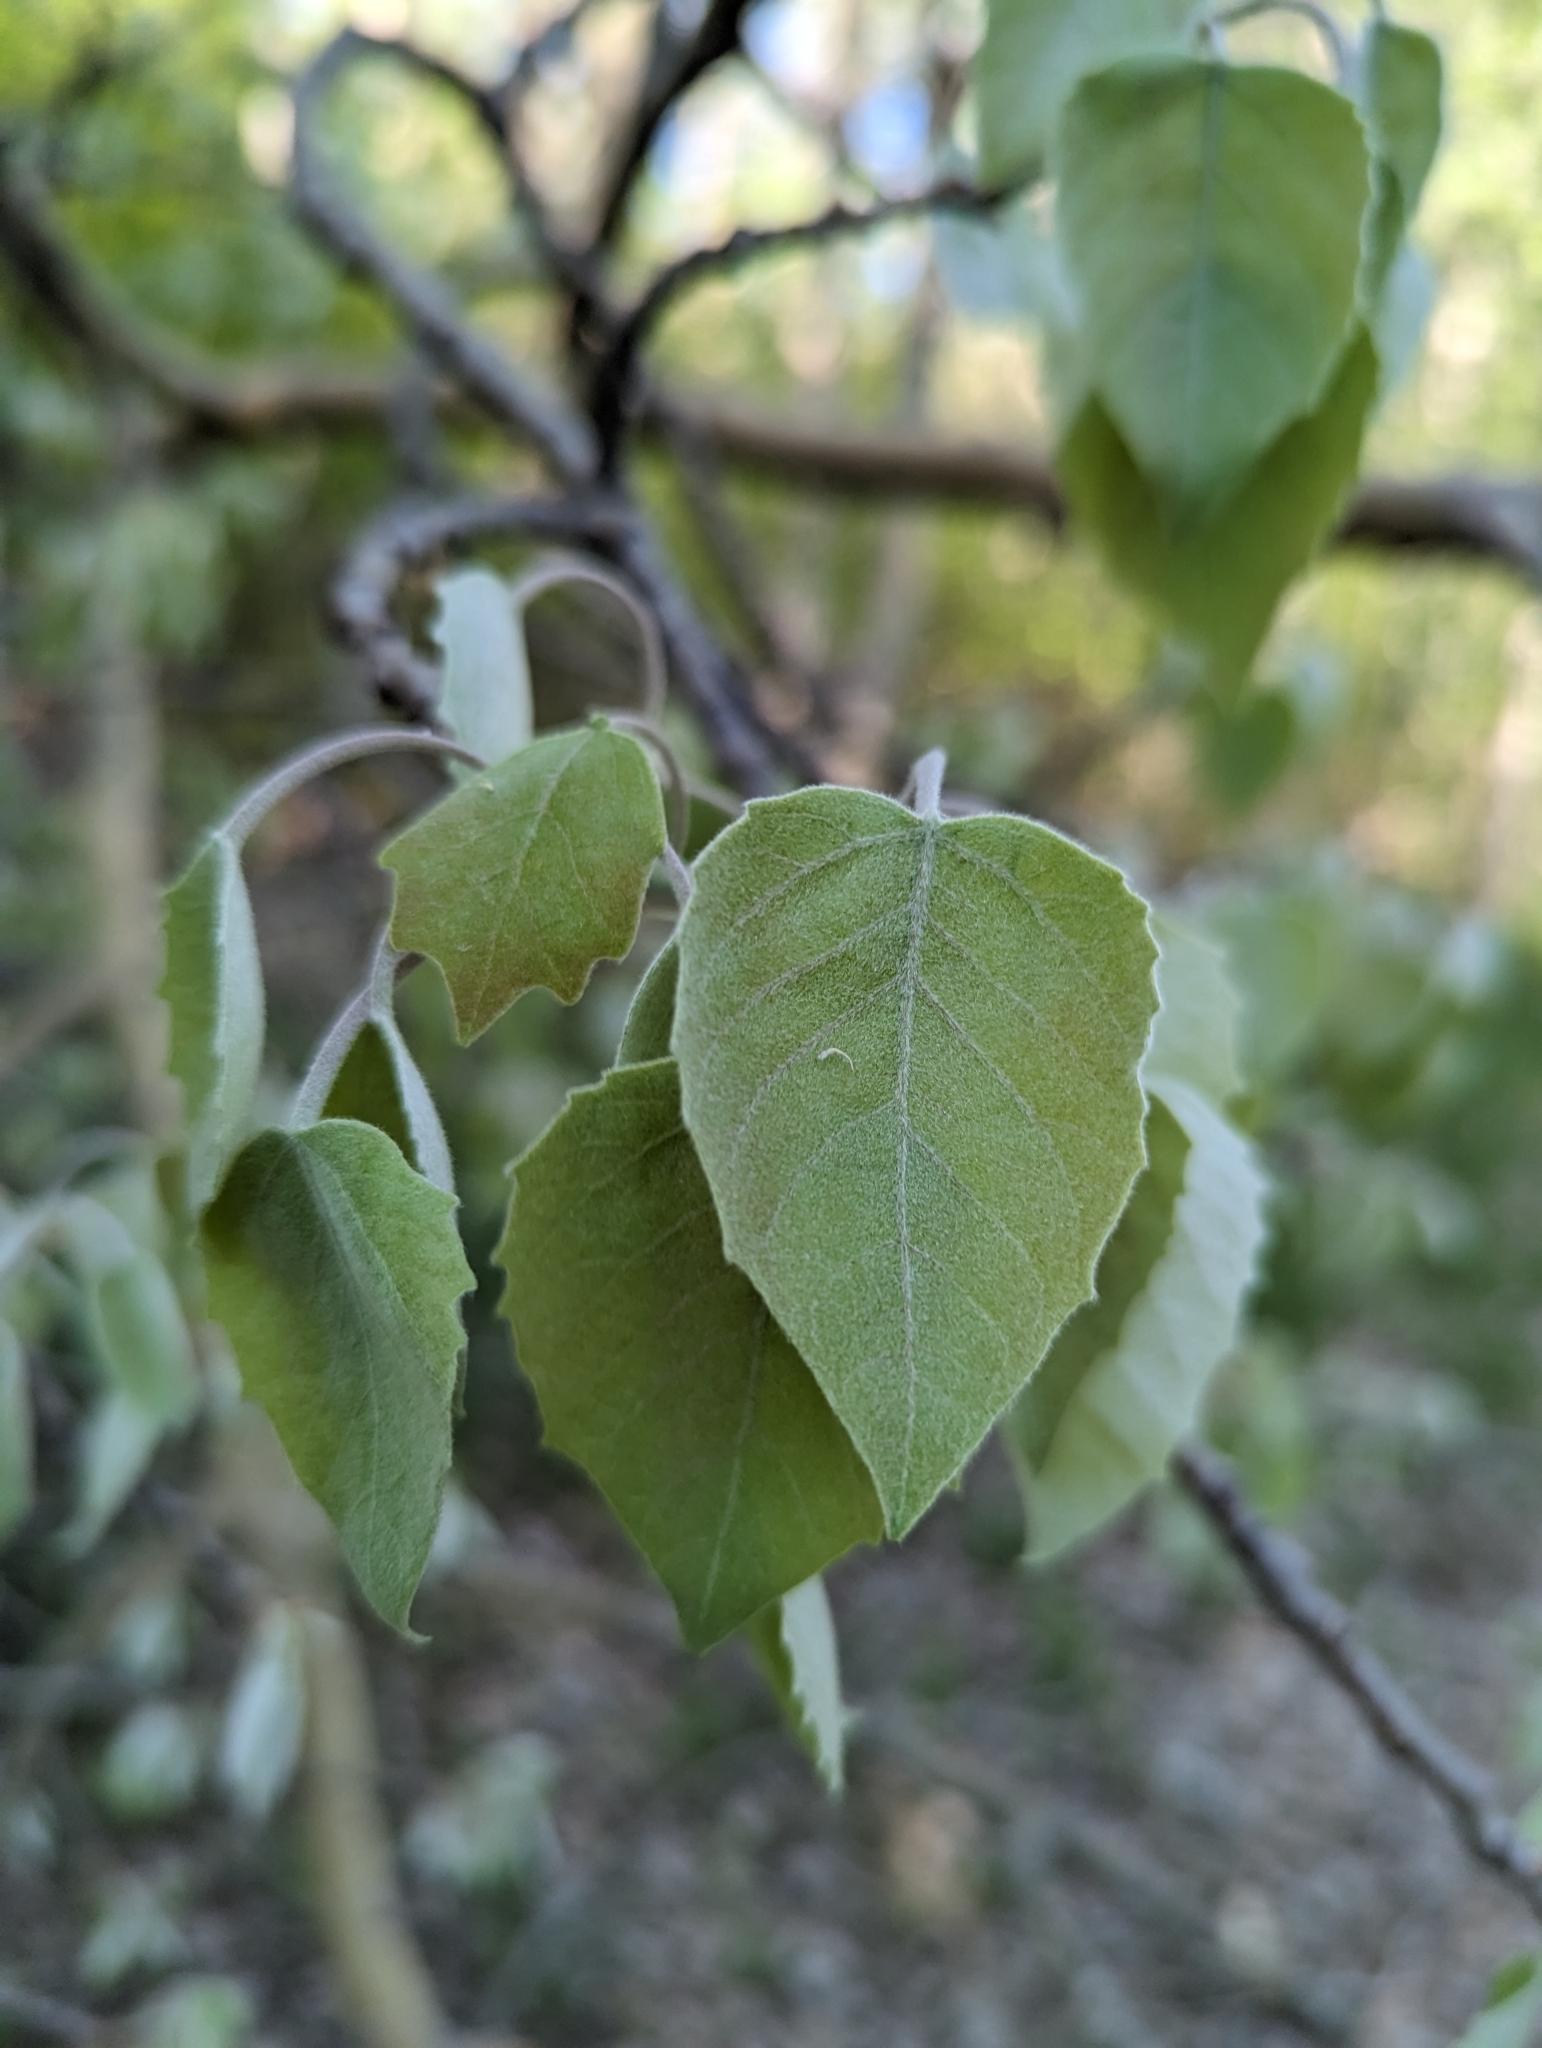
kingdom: Plantae
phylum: Tracheophyta
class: Magnoliopsida
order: Malpighiales
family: Salicaceae
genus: Populus
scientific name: Populus grandidentata
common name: Bigtooth aspen
